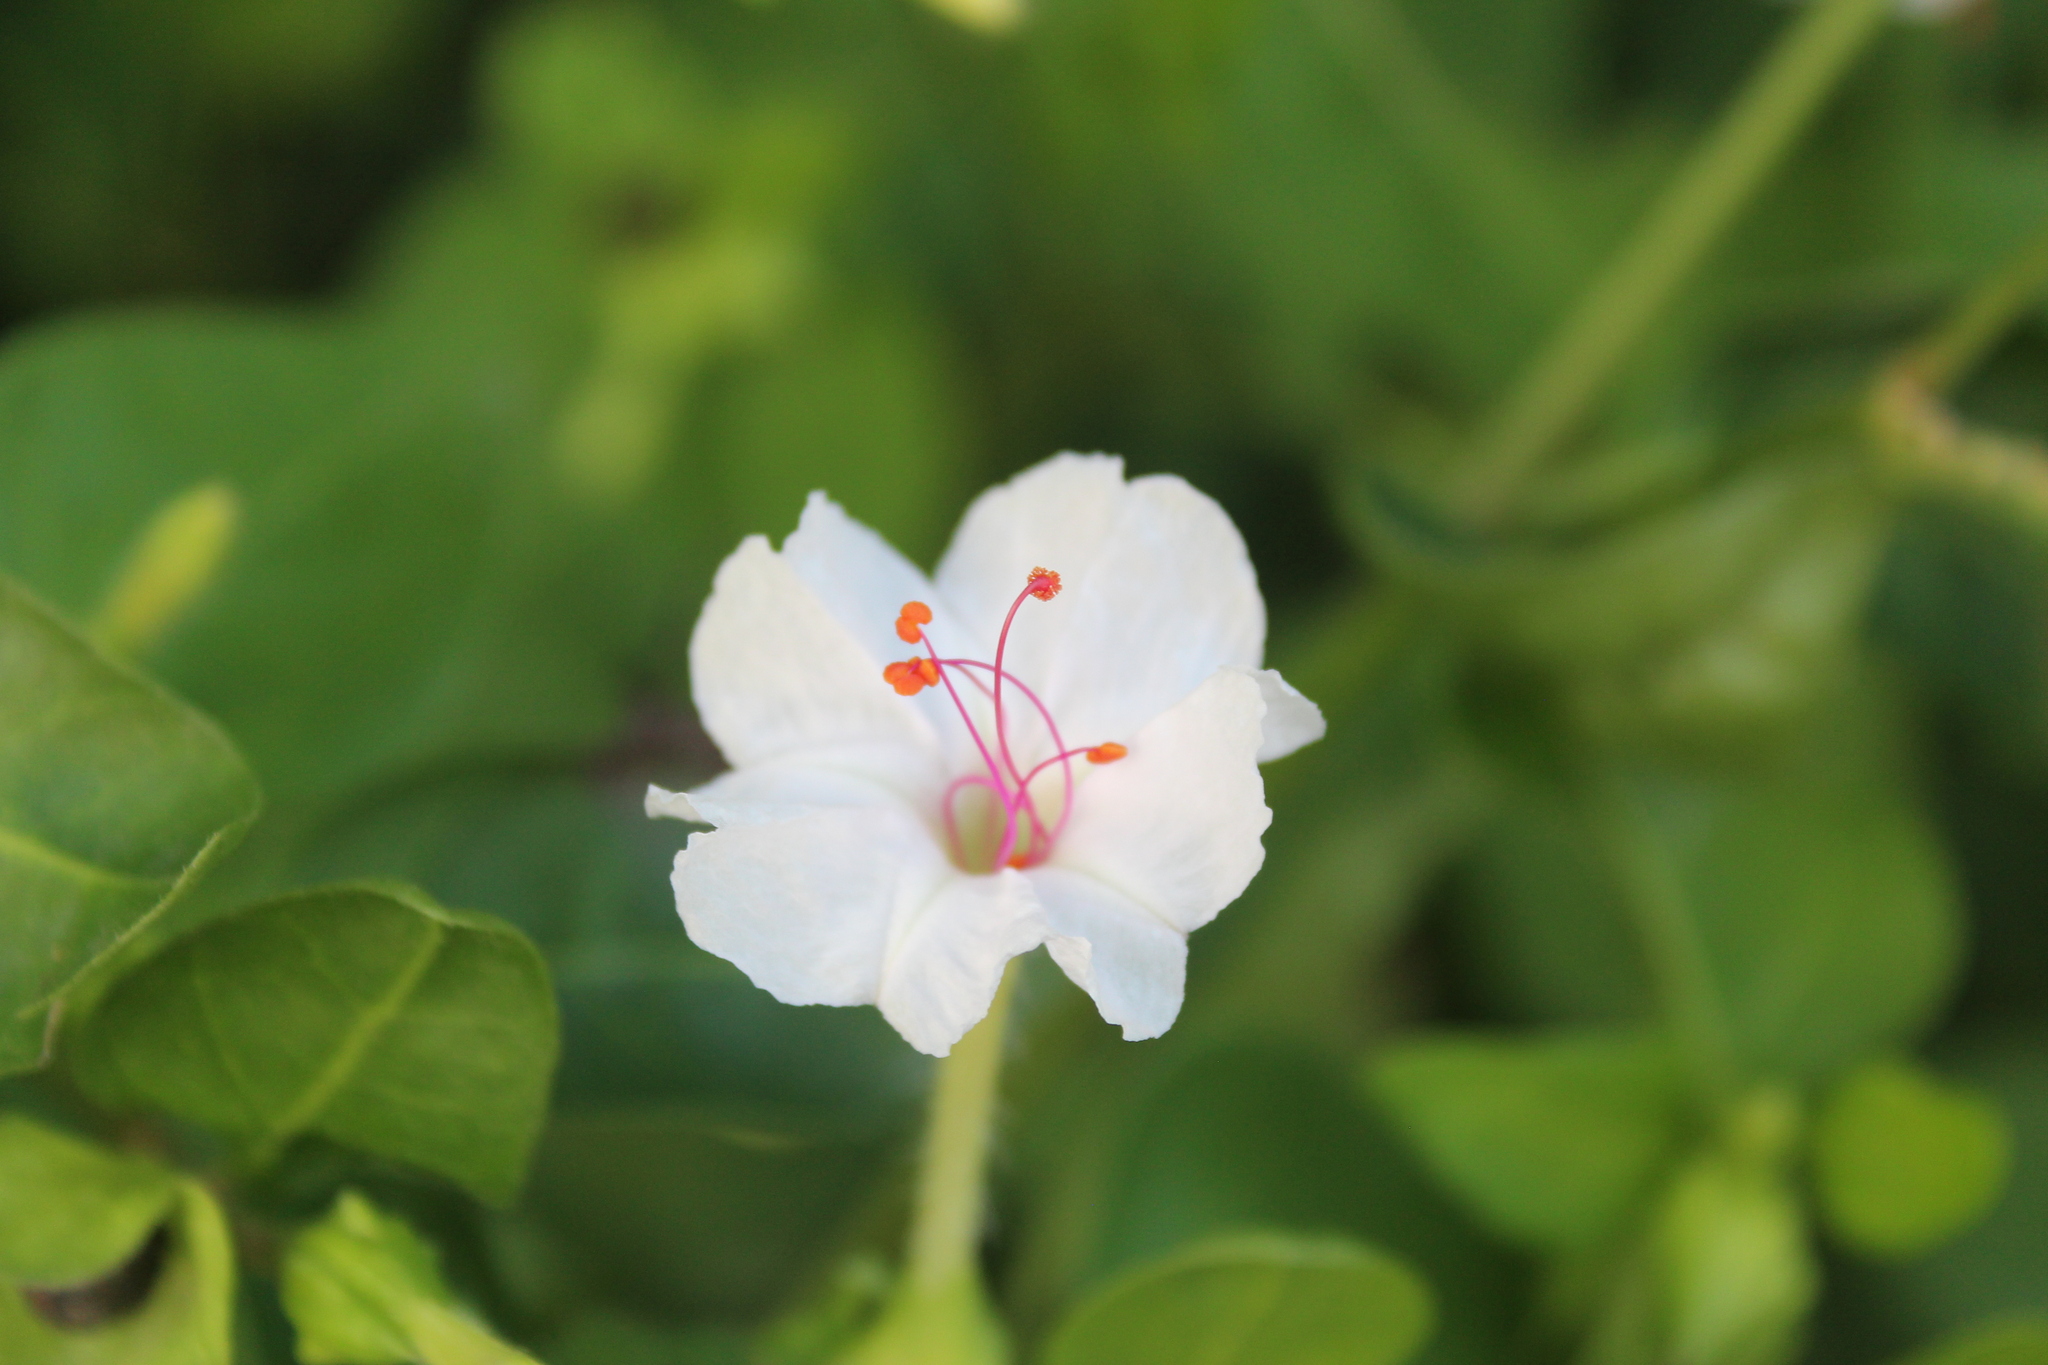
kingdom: Plantae
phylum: Tracheophyta
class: Magnoliopsida
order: Caryophyllales
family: Nyctaginaceae
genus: Mirabilis
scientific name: Mirabilis jalapa
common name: Marvel-of-peru
